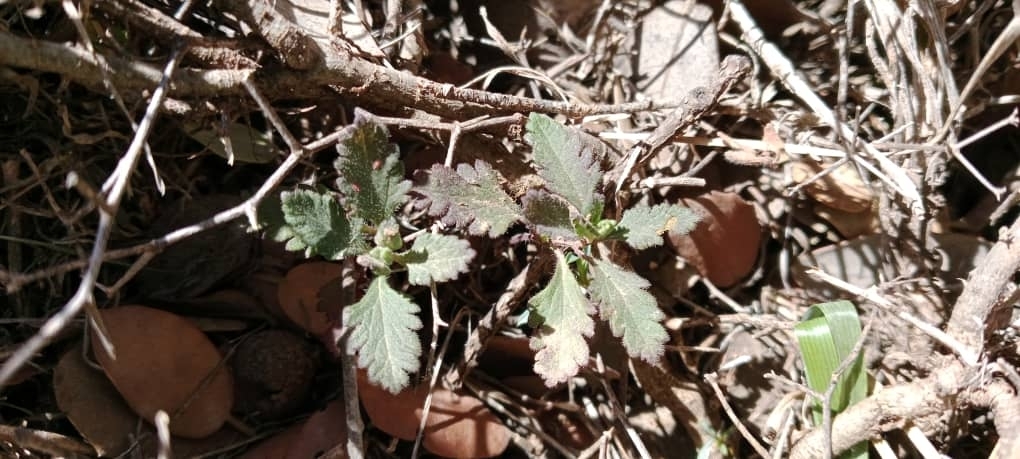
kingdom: Plantae
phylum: Tracheophyta
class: Magnoliopsida
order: Lamiales
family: Lamiaceae
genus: Teucrium
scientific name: Teucrium chamaedrys
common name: Wall germander
